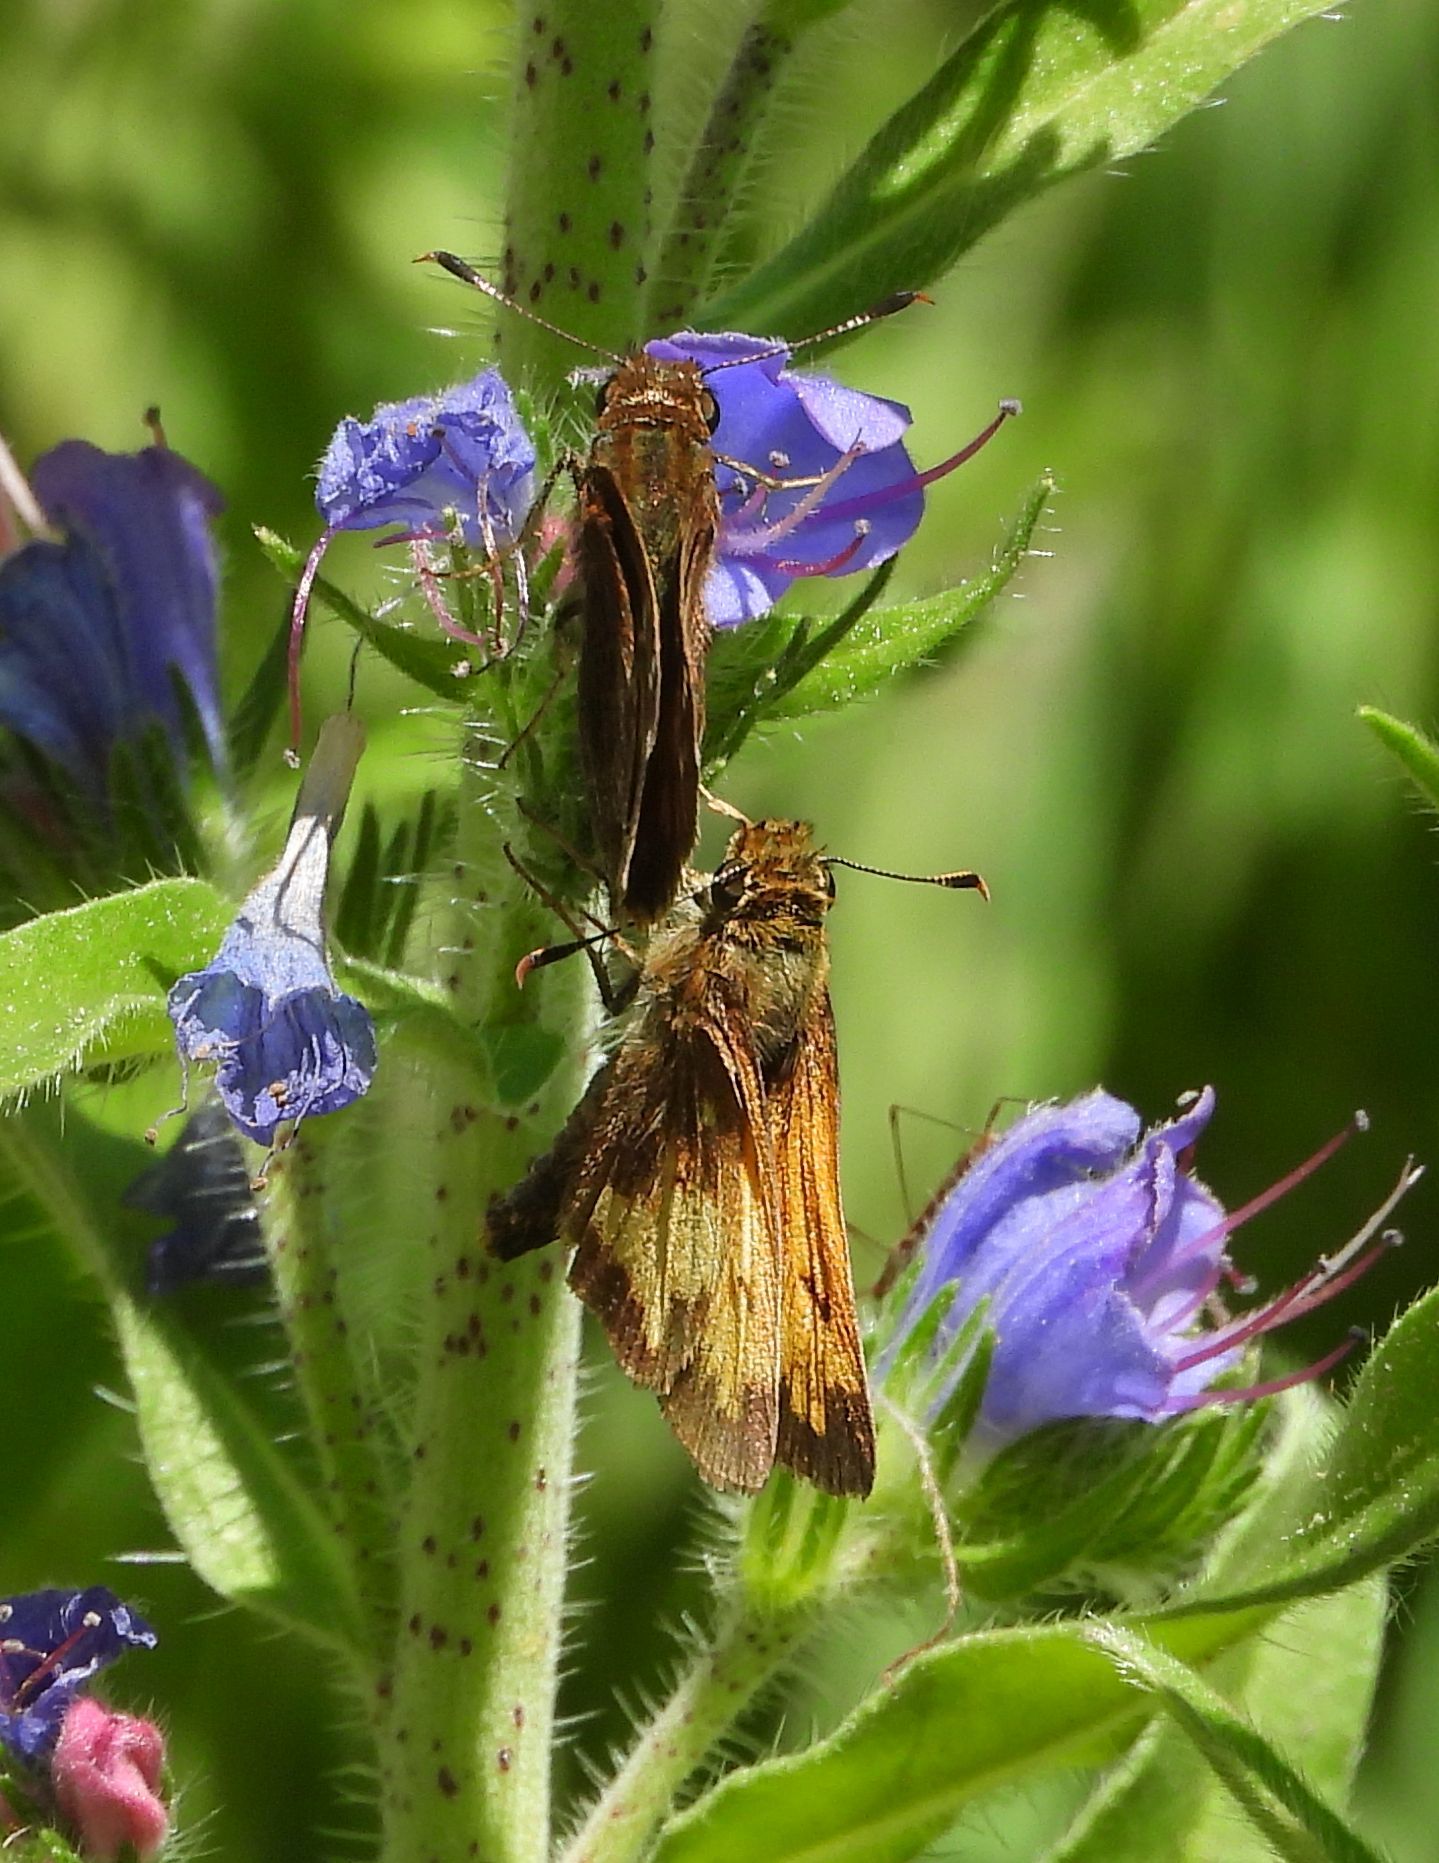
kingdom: Animalia
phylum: Arthropoda
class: Insecta
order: Lepidoptera
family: Hesperiidae
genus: Lon
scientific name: Lon hobomok
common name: Hobomok skipper
